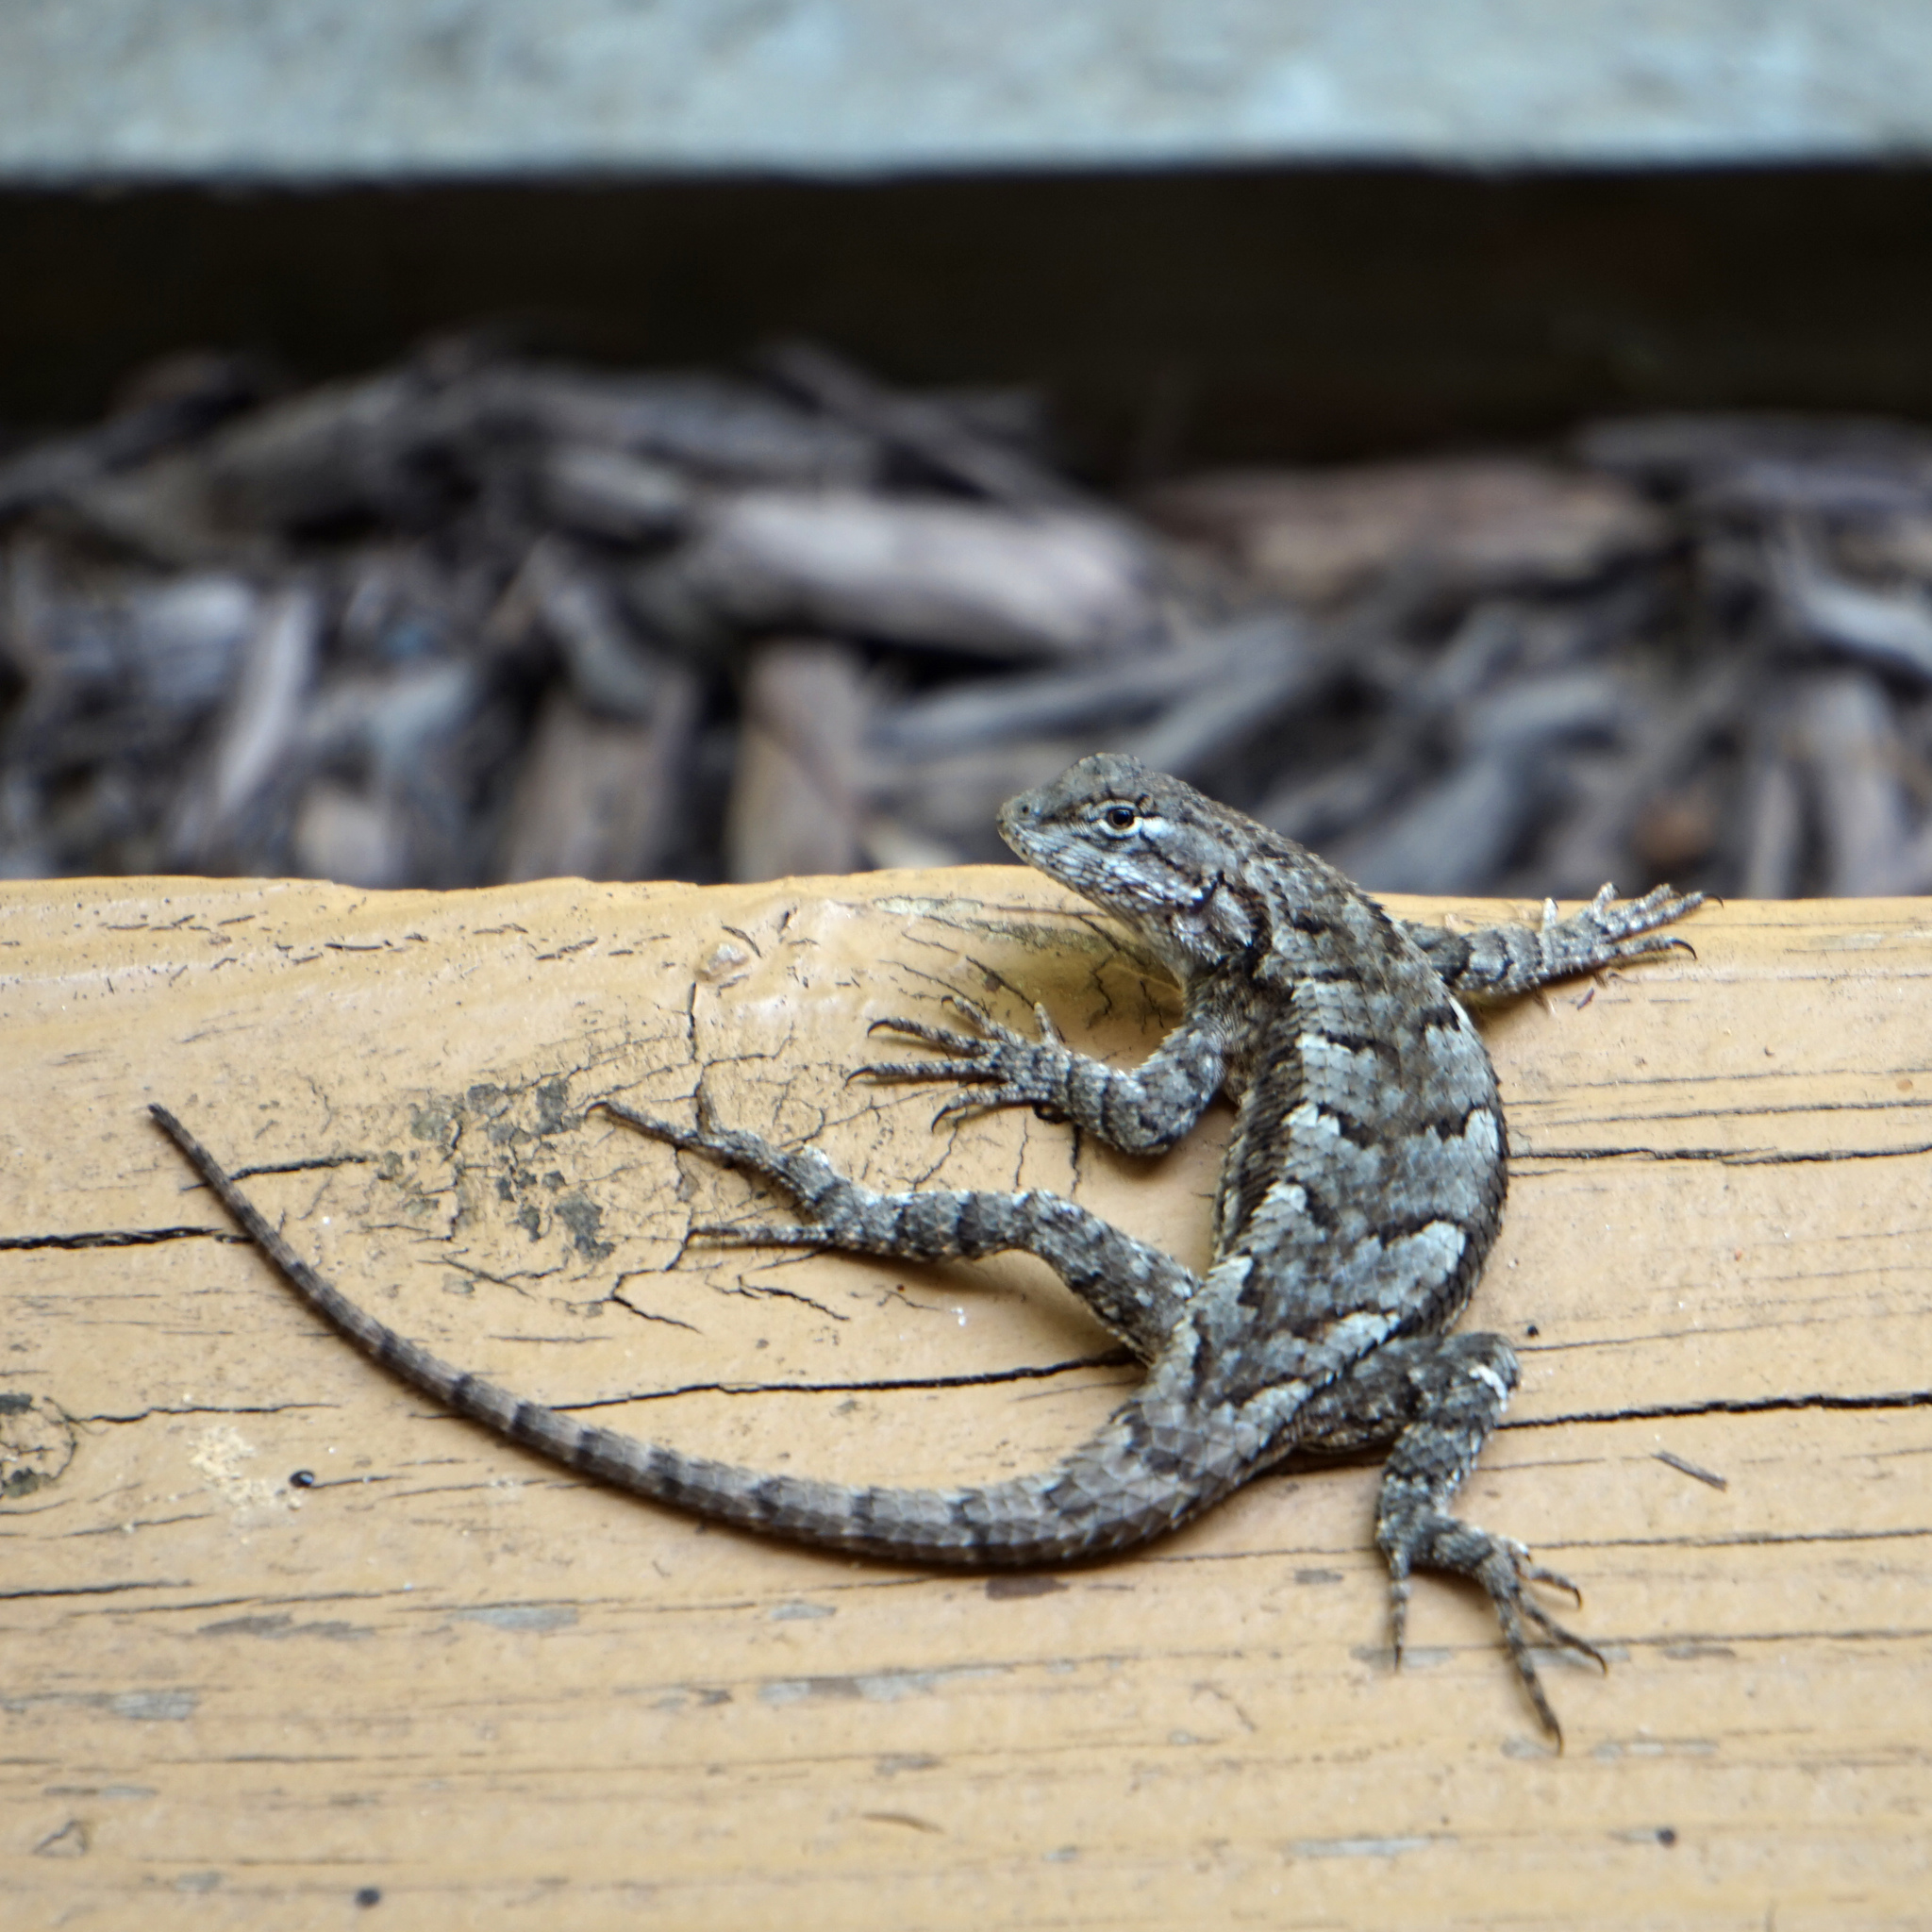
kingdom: Animalia
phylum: Chordata
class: Squamata
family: Phrynosomatidae
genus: Sceloporus
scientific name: Sceloporus undulatus
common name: Eastern fence lizard
